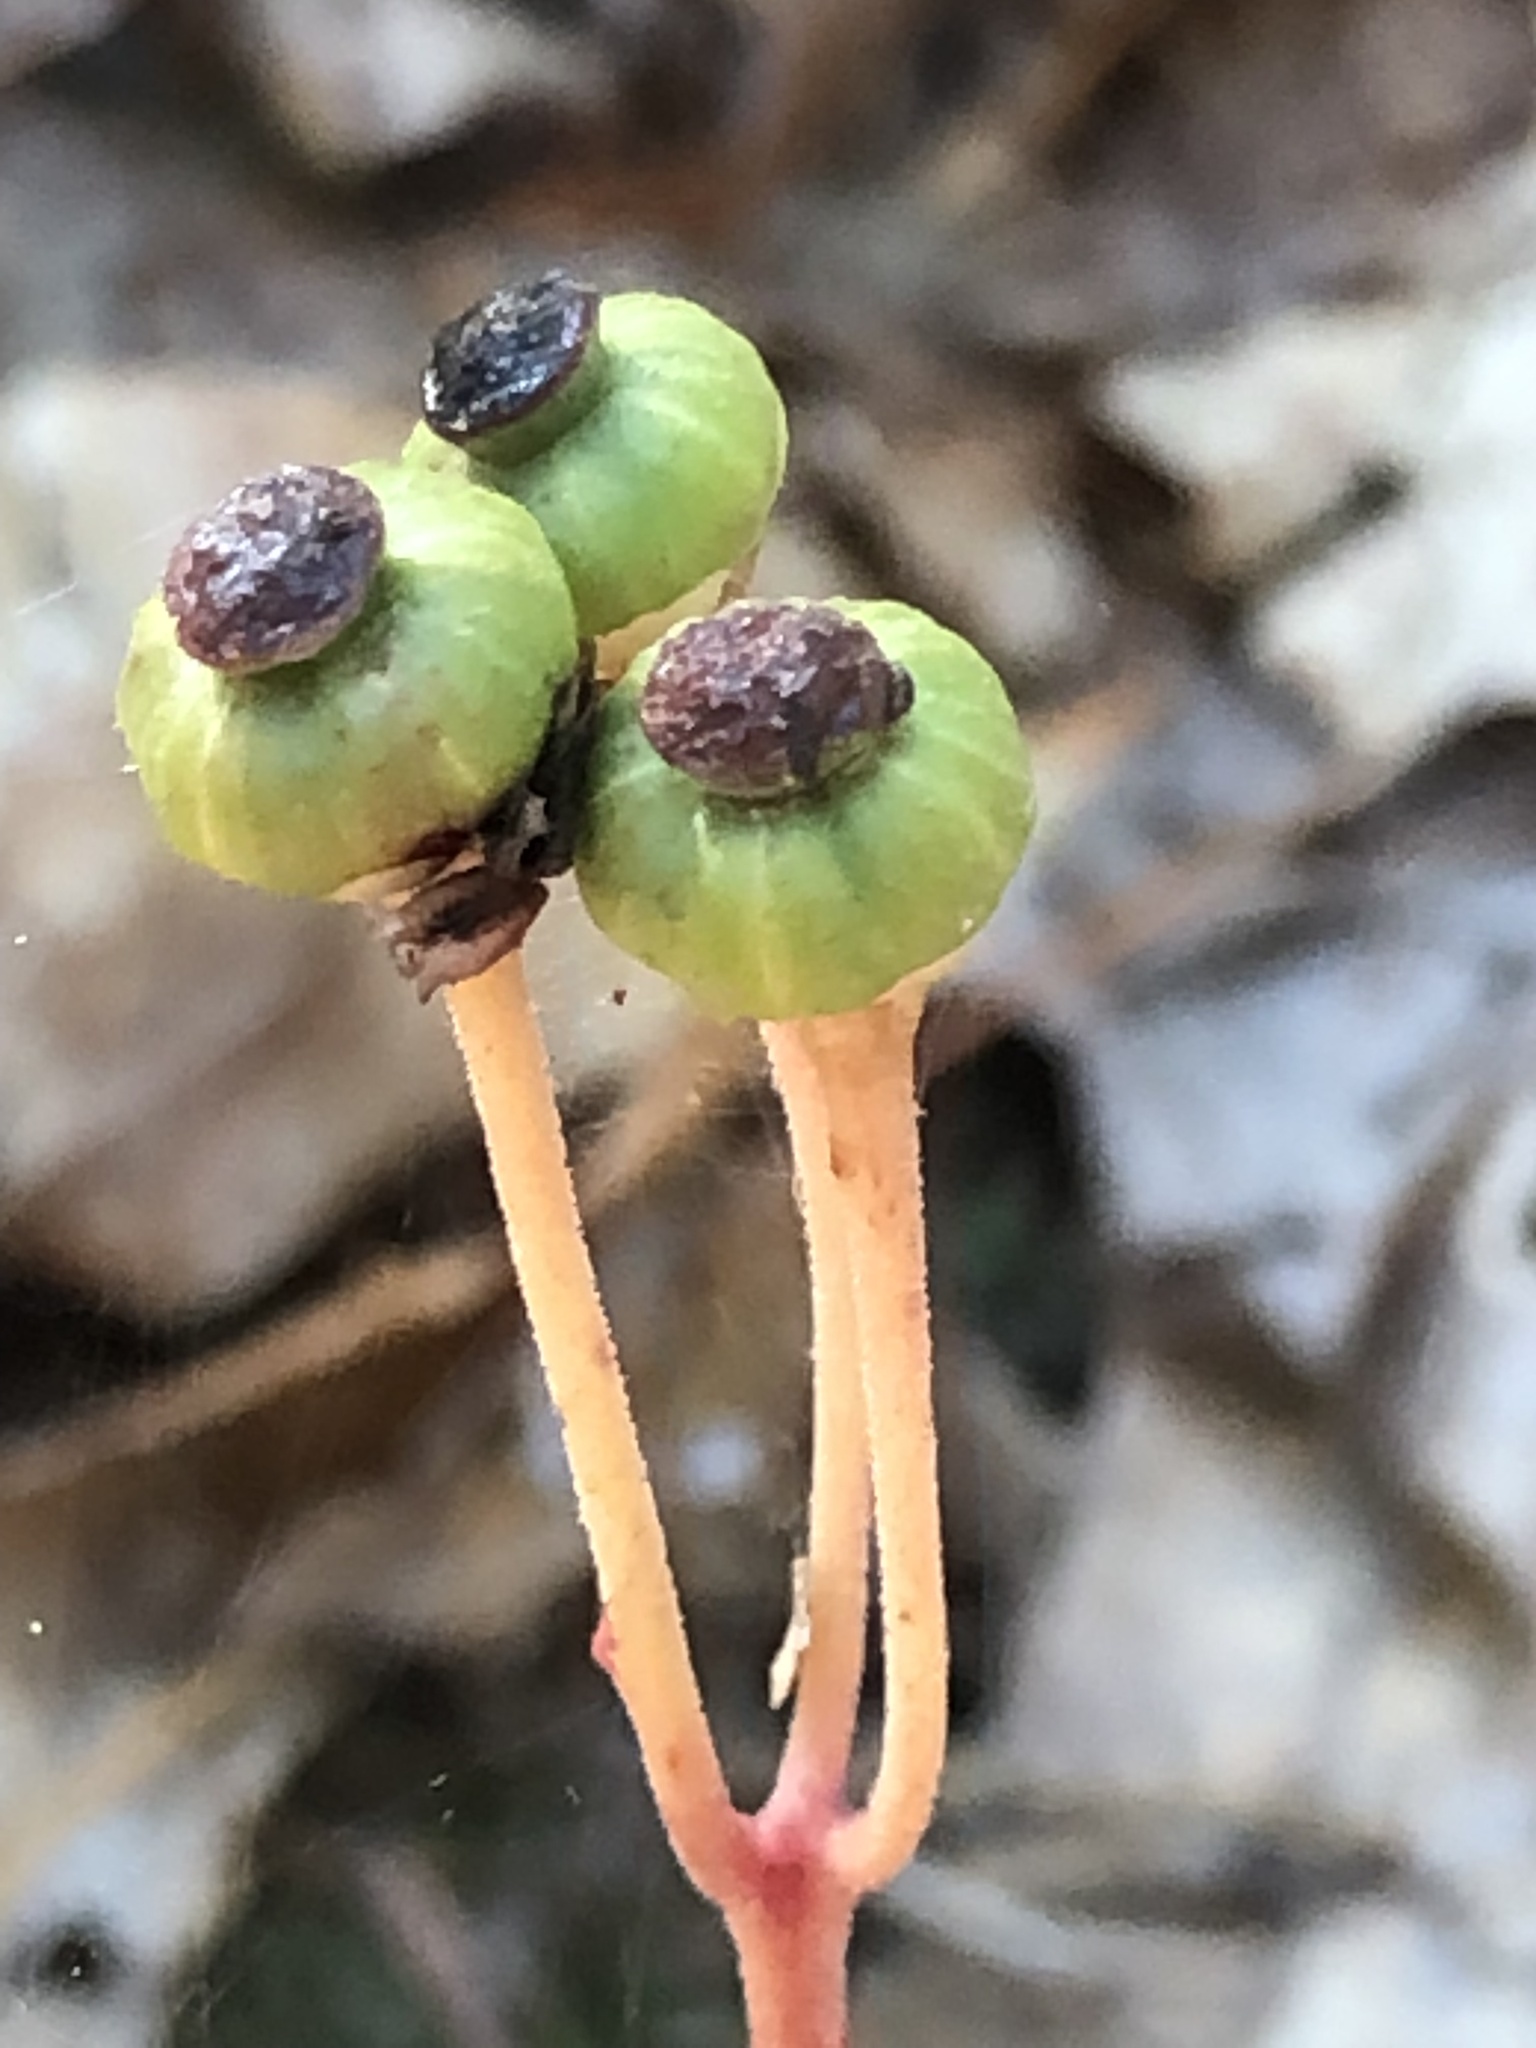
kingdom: Plantae
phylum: Tracheophyta
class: Magnoliopsida
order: Ericales
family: Ericaceae
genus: Chimaphila
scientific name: Chimaphila maculata
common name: Spotted pipsissewa
